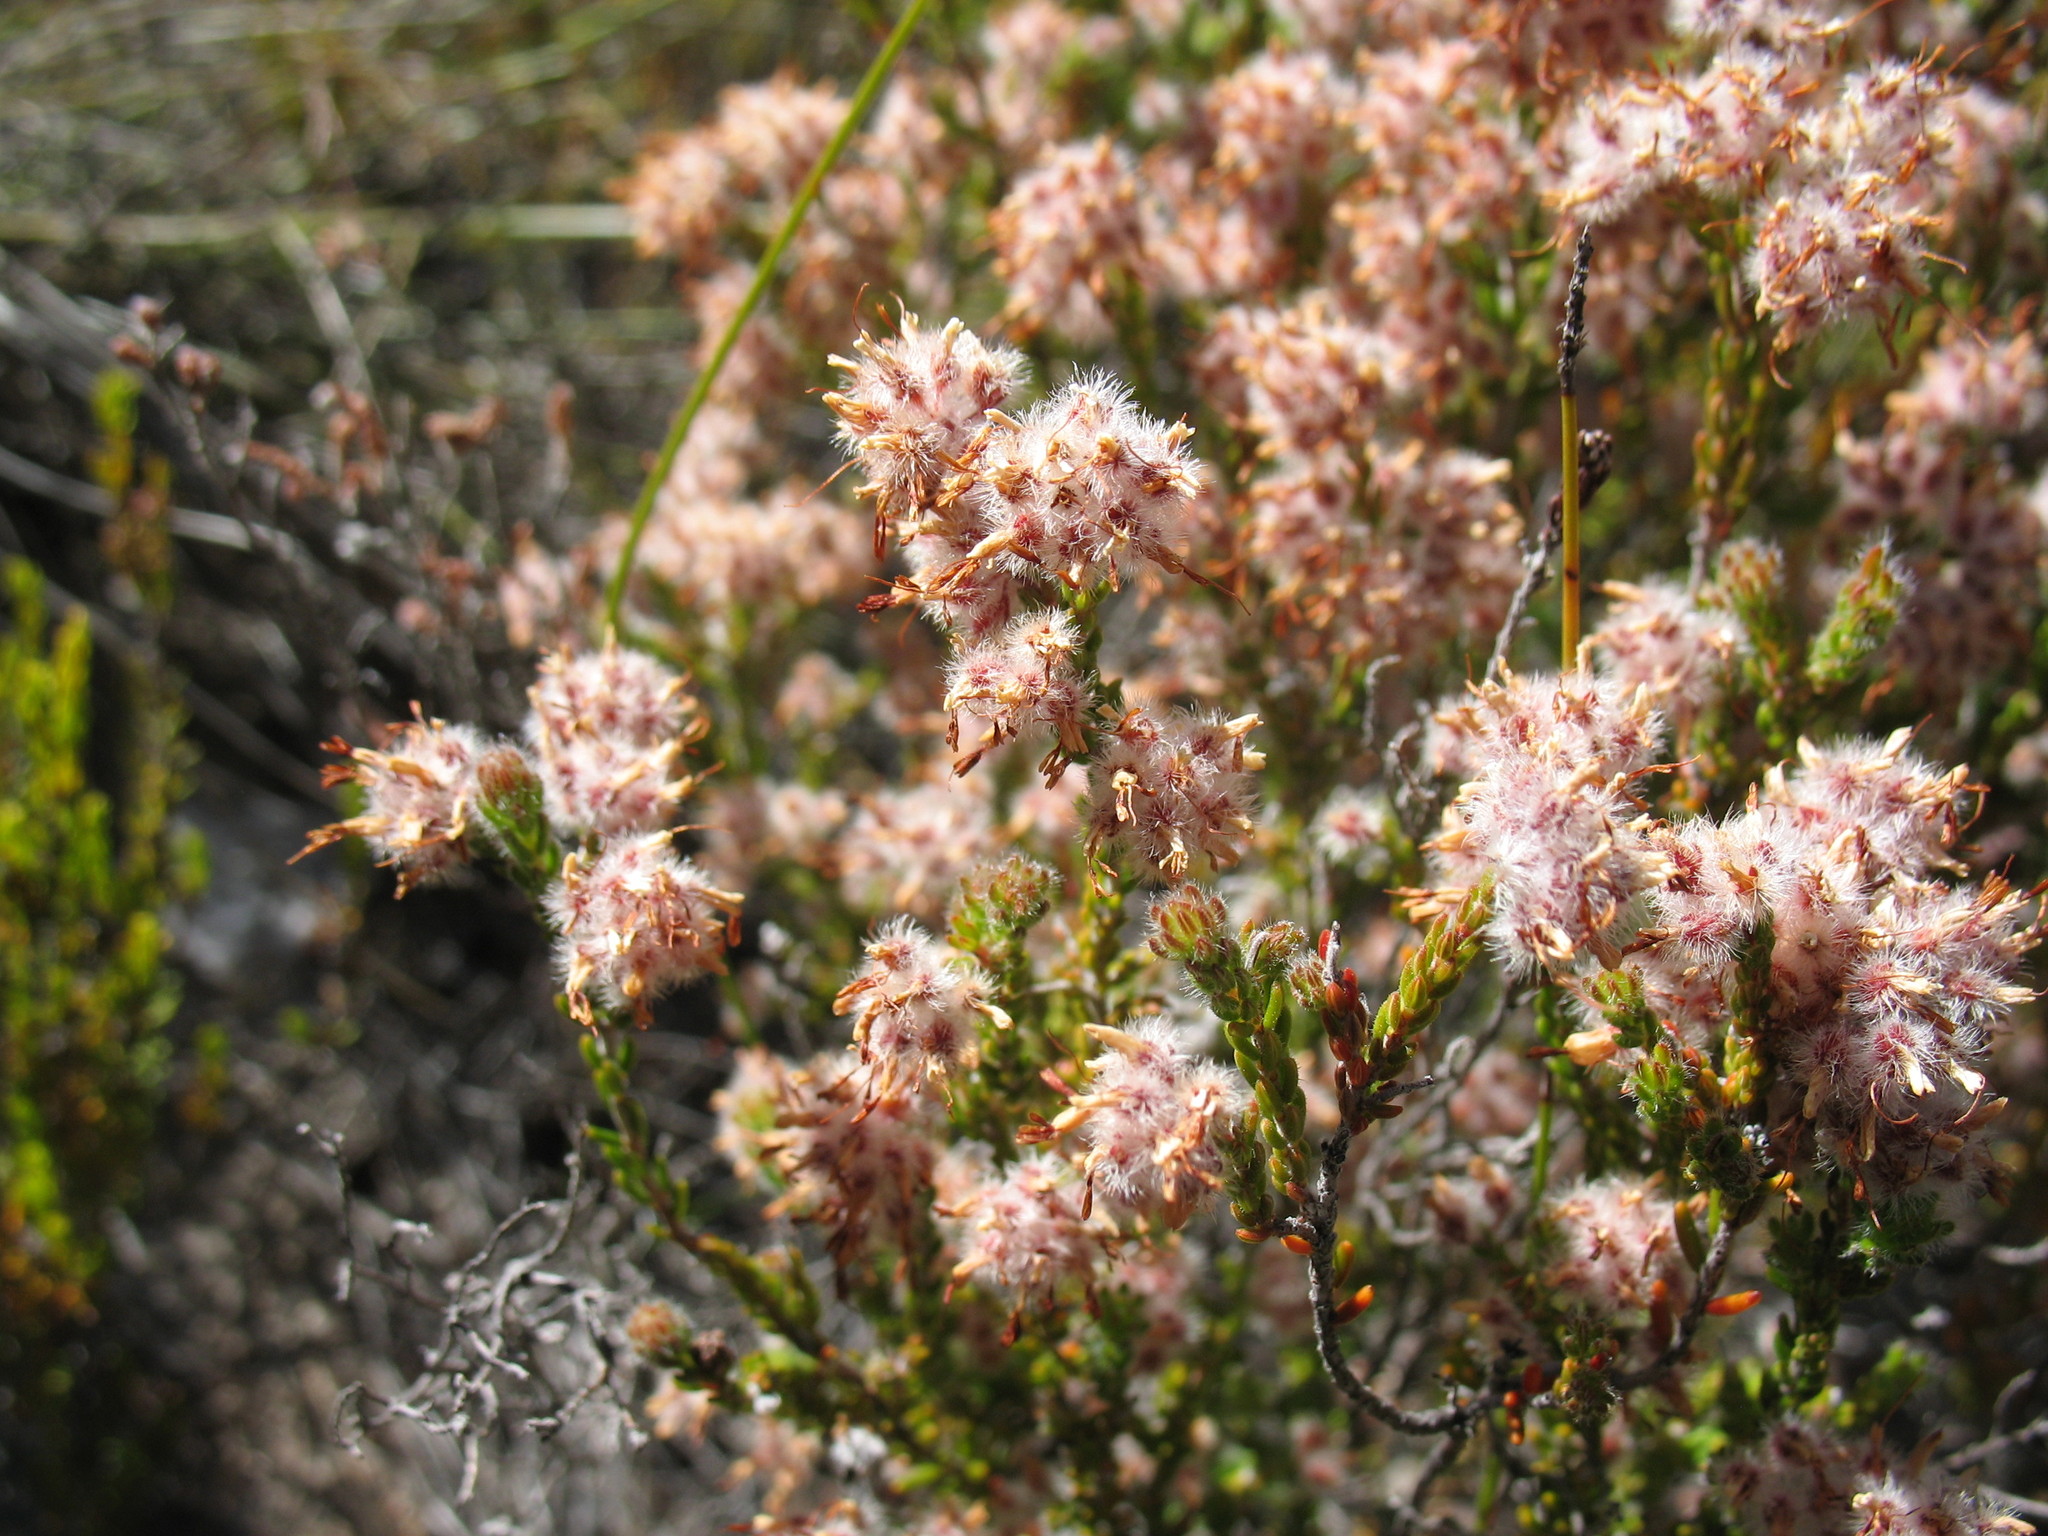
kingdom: Plantae
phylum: Tracheophyta
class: Magnoliopsida
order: Ericales
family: Ericaceae
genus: Erica
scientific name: Erica eriocephala
